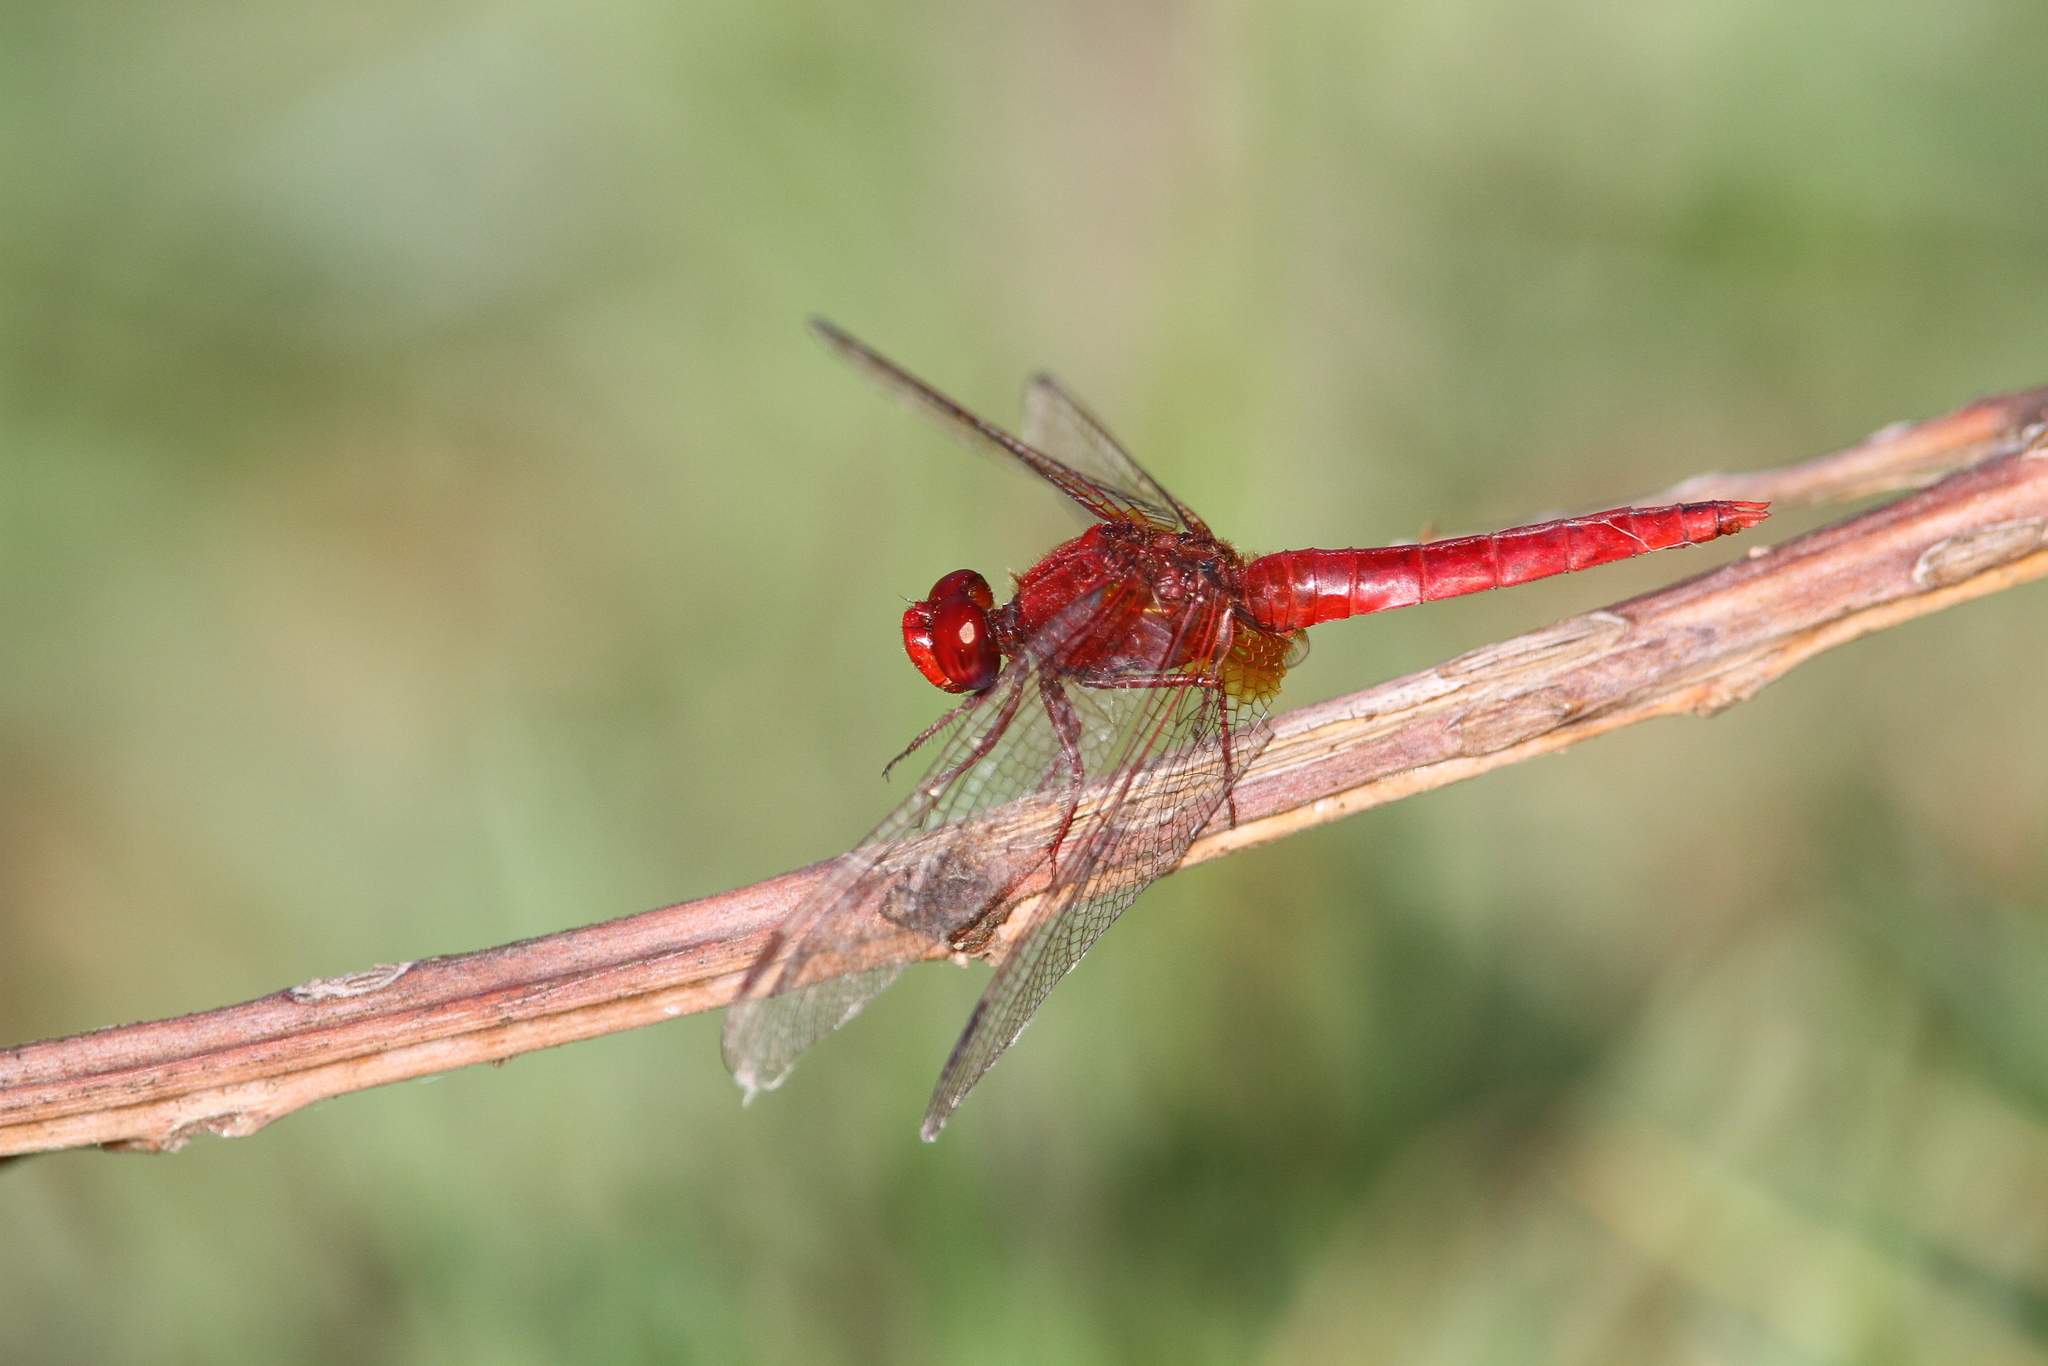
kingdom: Animalia
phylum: Arthropoda
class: Insecta
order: Odonata
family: Libellulidae
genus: Crocothemis
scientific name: Crocothemis erythraea
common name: Scarlet dragonfly
